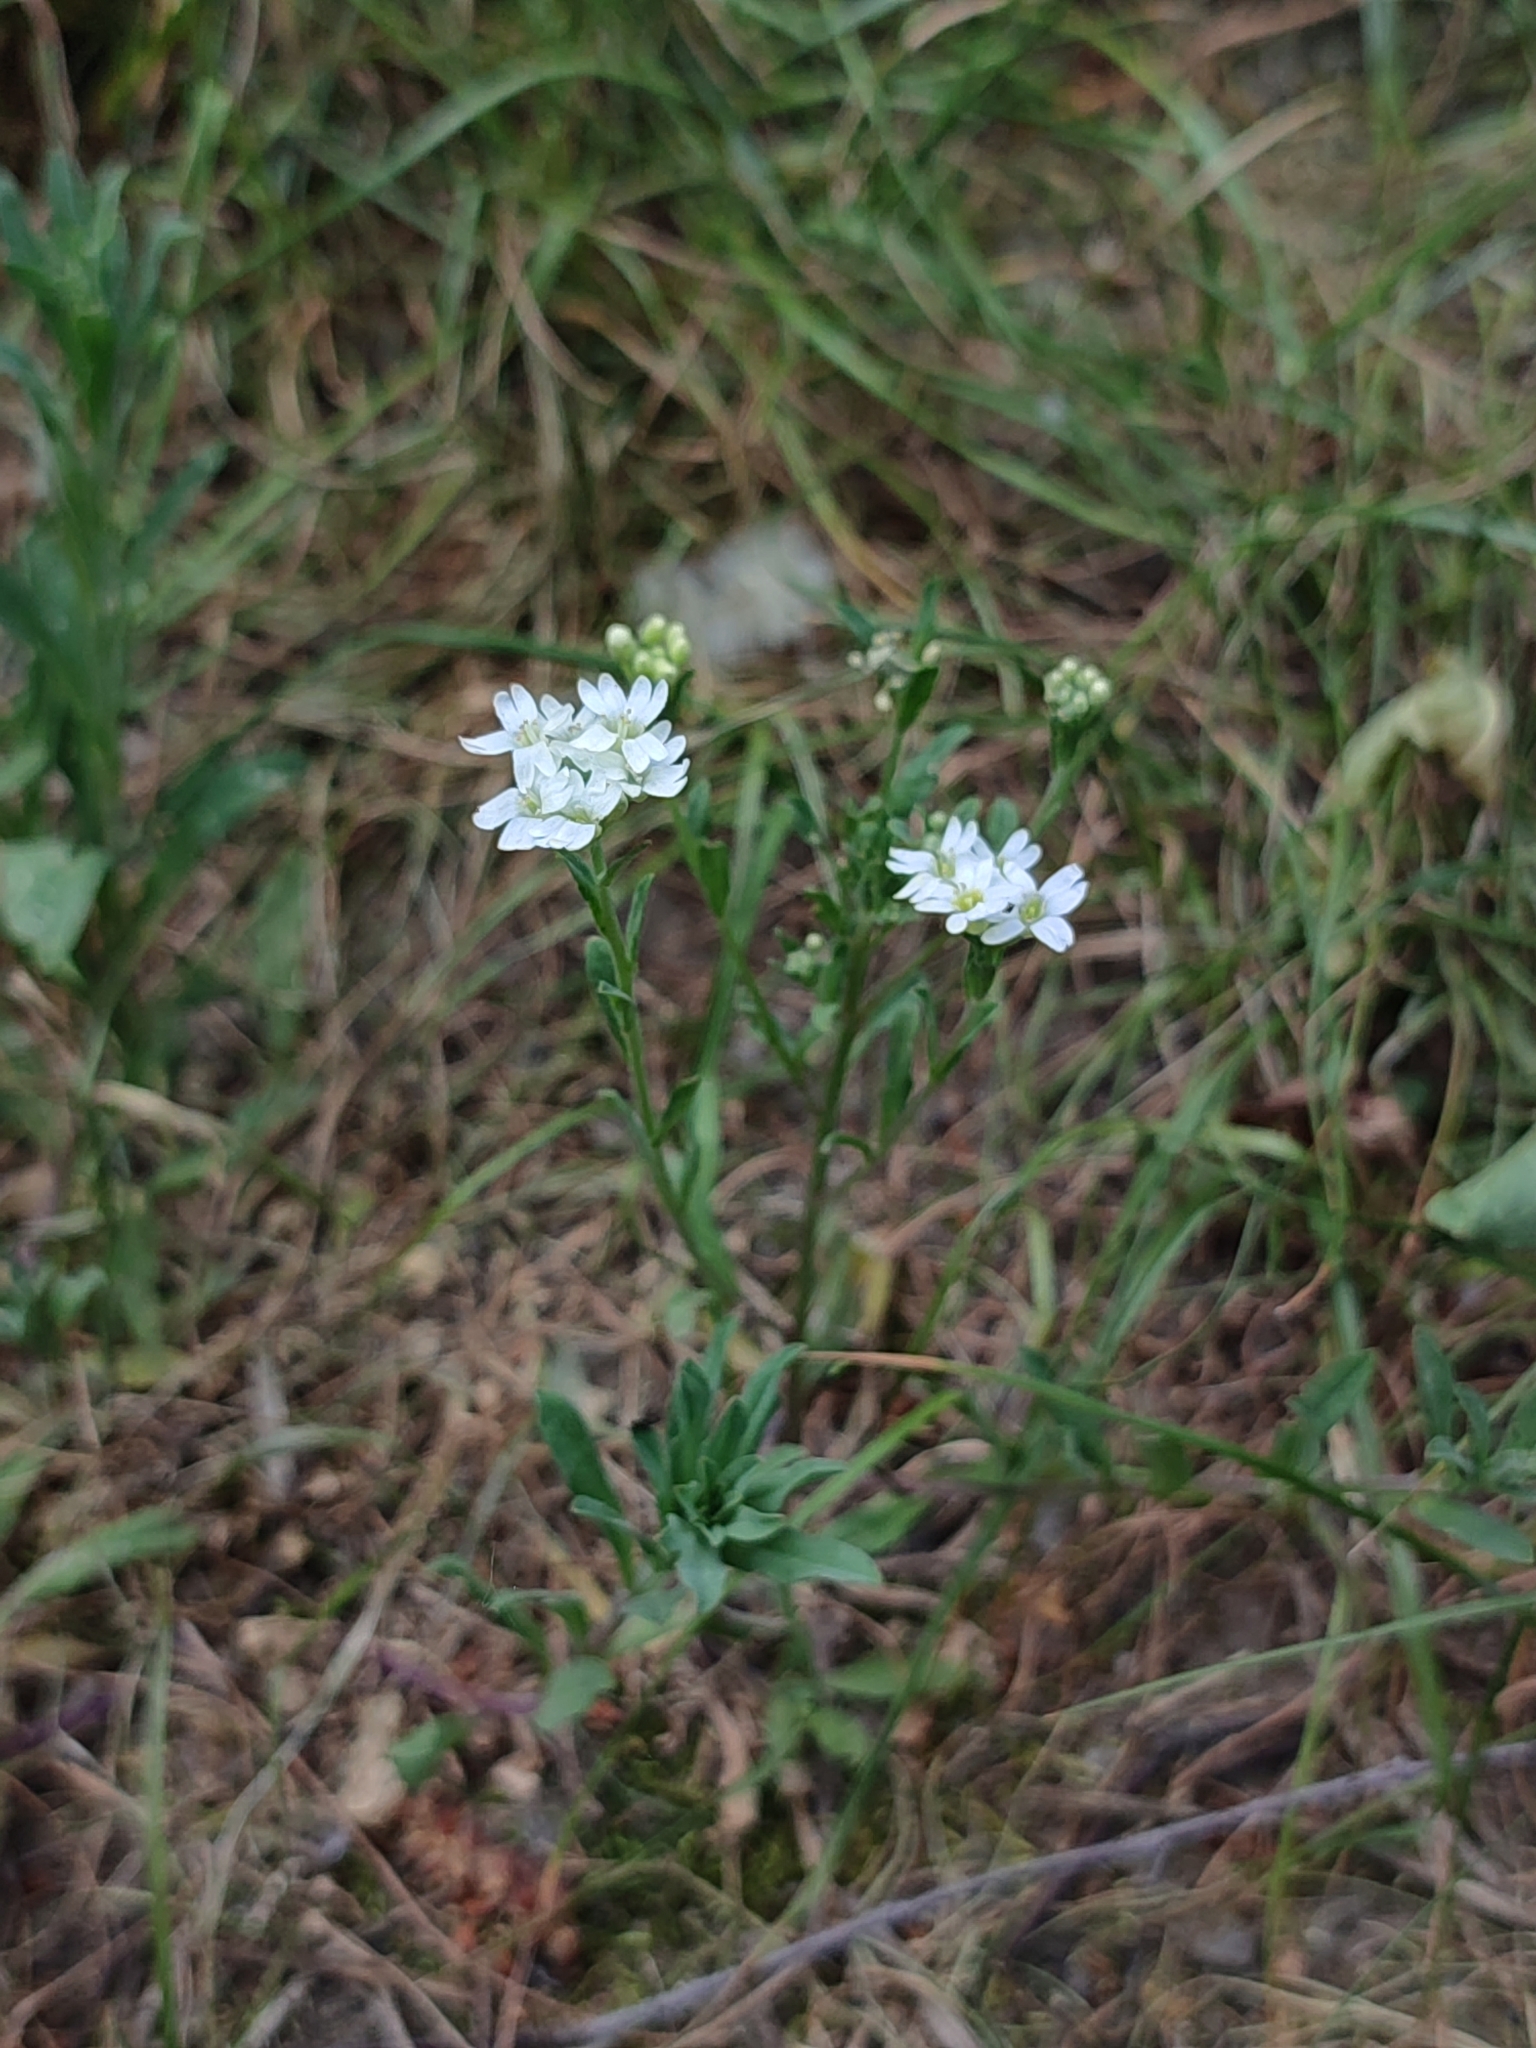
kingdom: Plantae
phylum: Tracheophyta
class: Magnoliopsida
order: Brassicales
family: Brassicaceae
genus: Berteroa
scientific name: Berteroa incana
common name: Hoary alison
